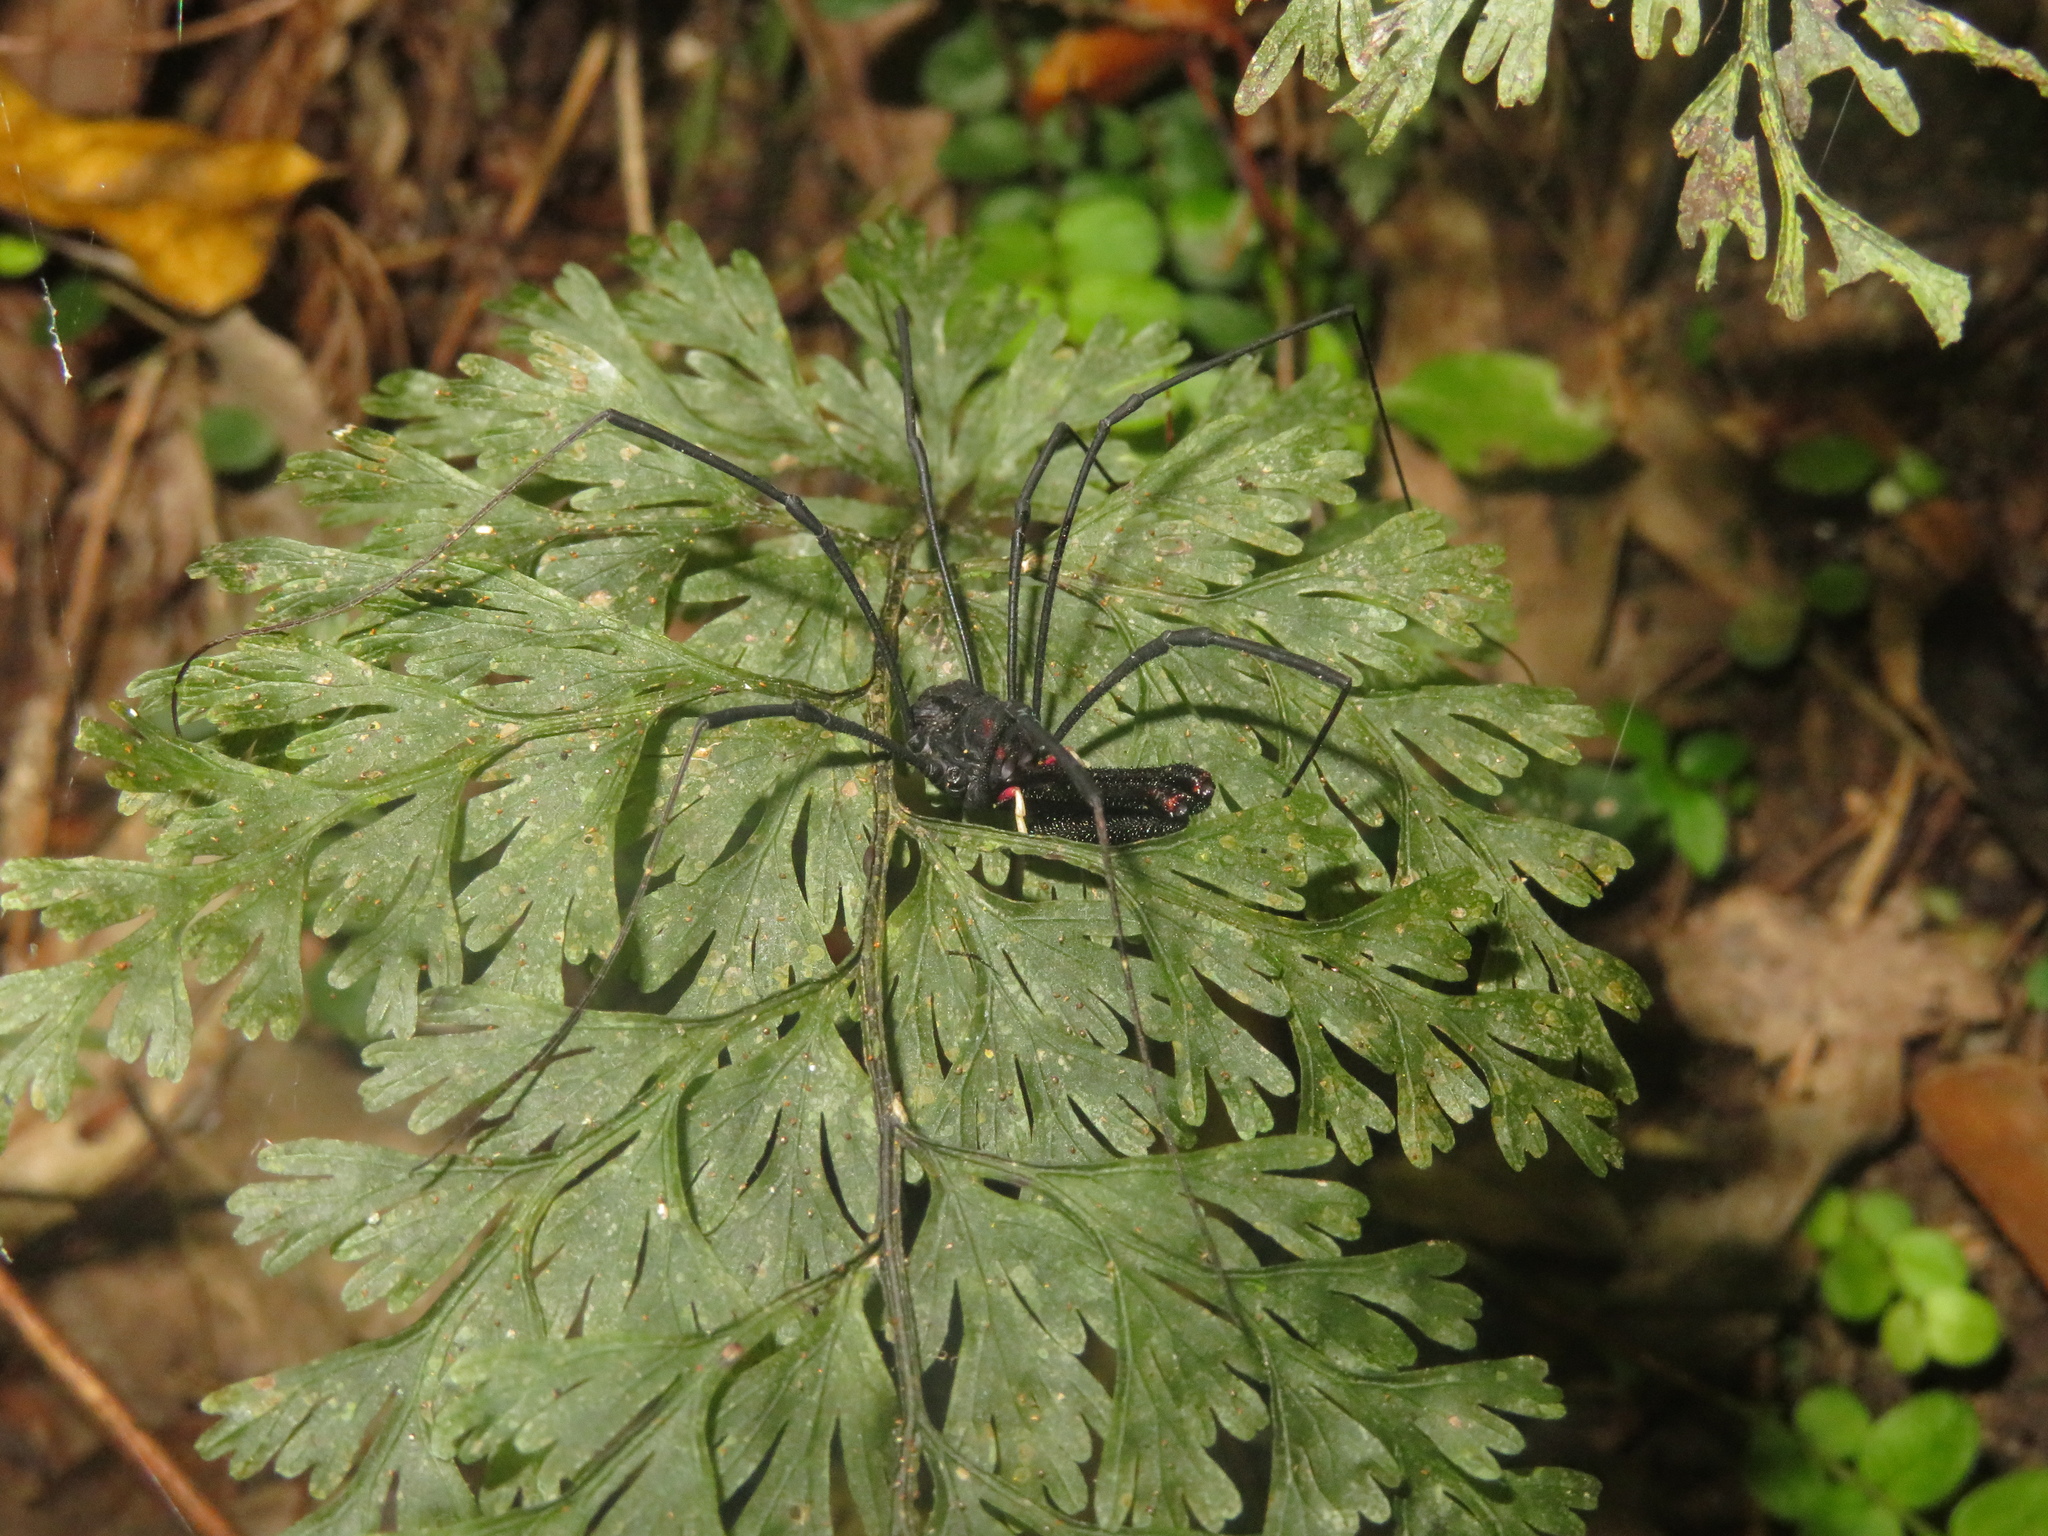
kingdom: Animalia
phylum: Arthropoda
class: Arachnida
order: Opiliones
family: Neopilionidae
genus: Forsteropsalis
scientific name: Forsteropsalis inconstans
